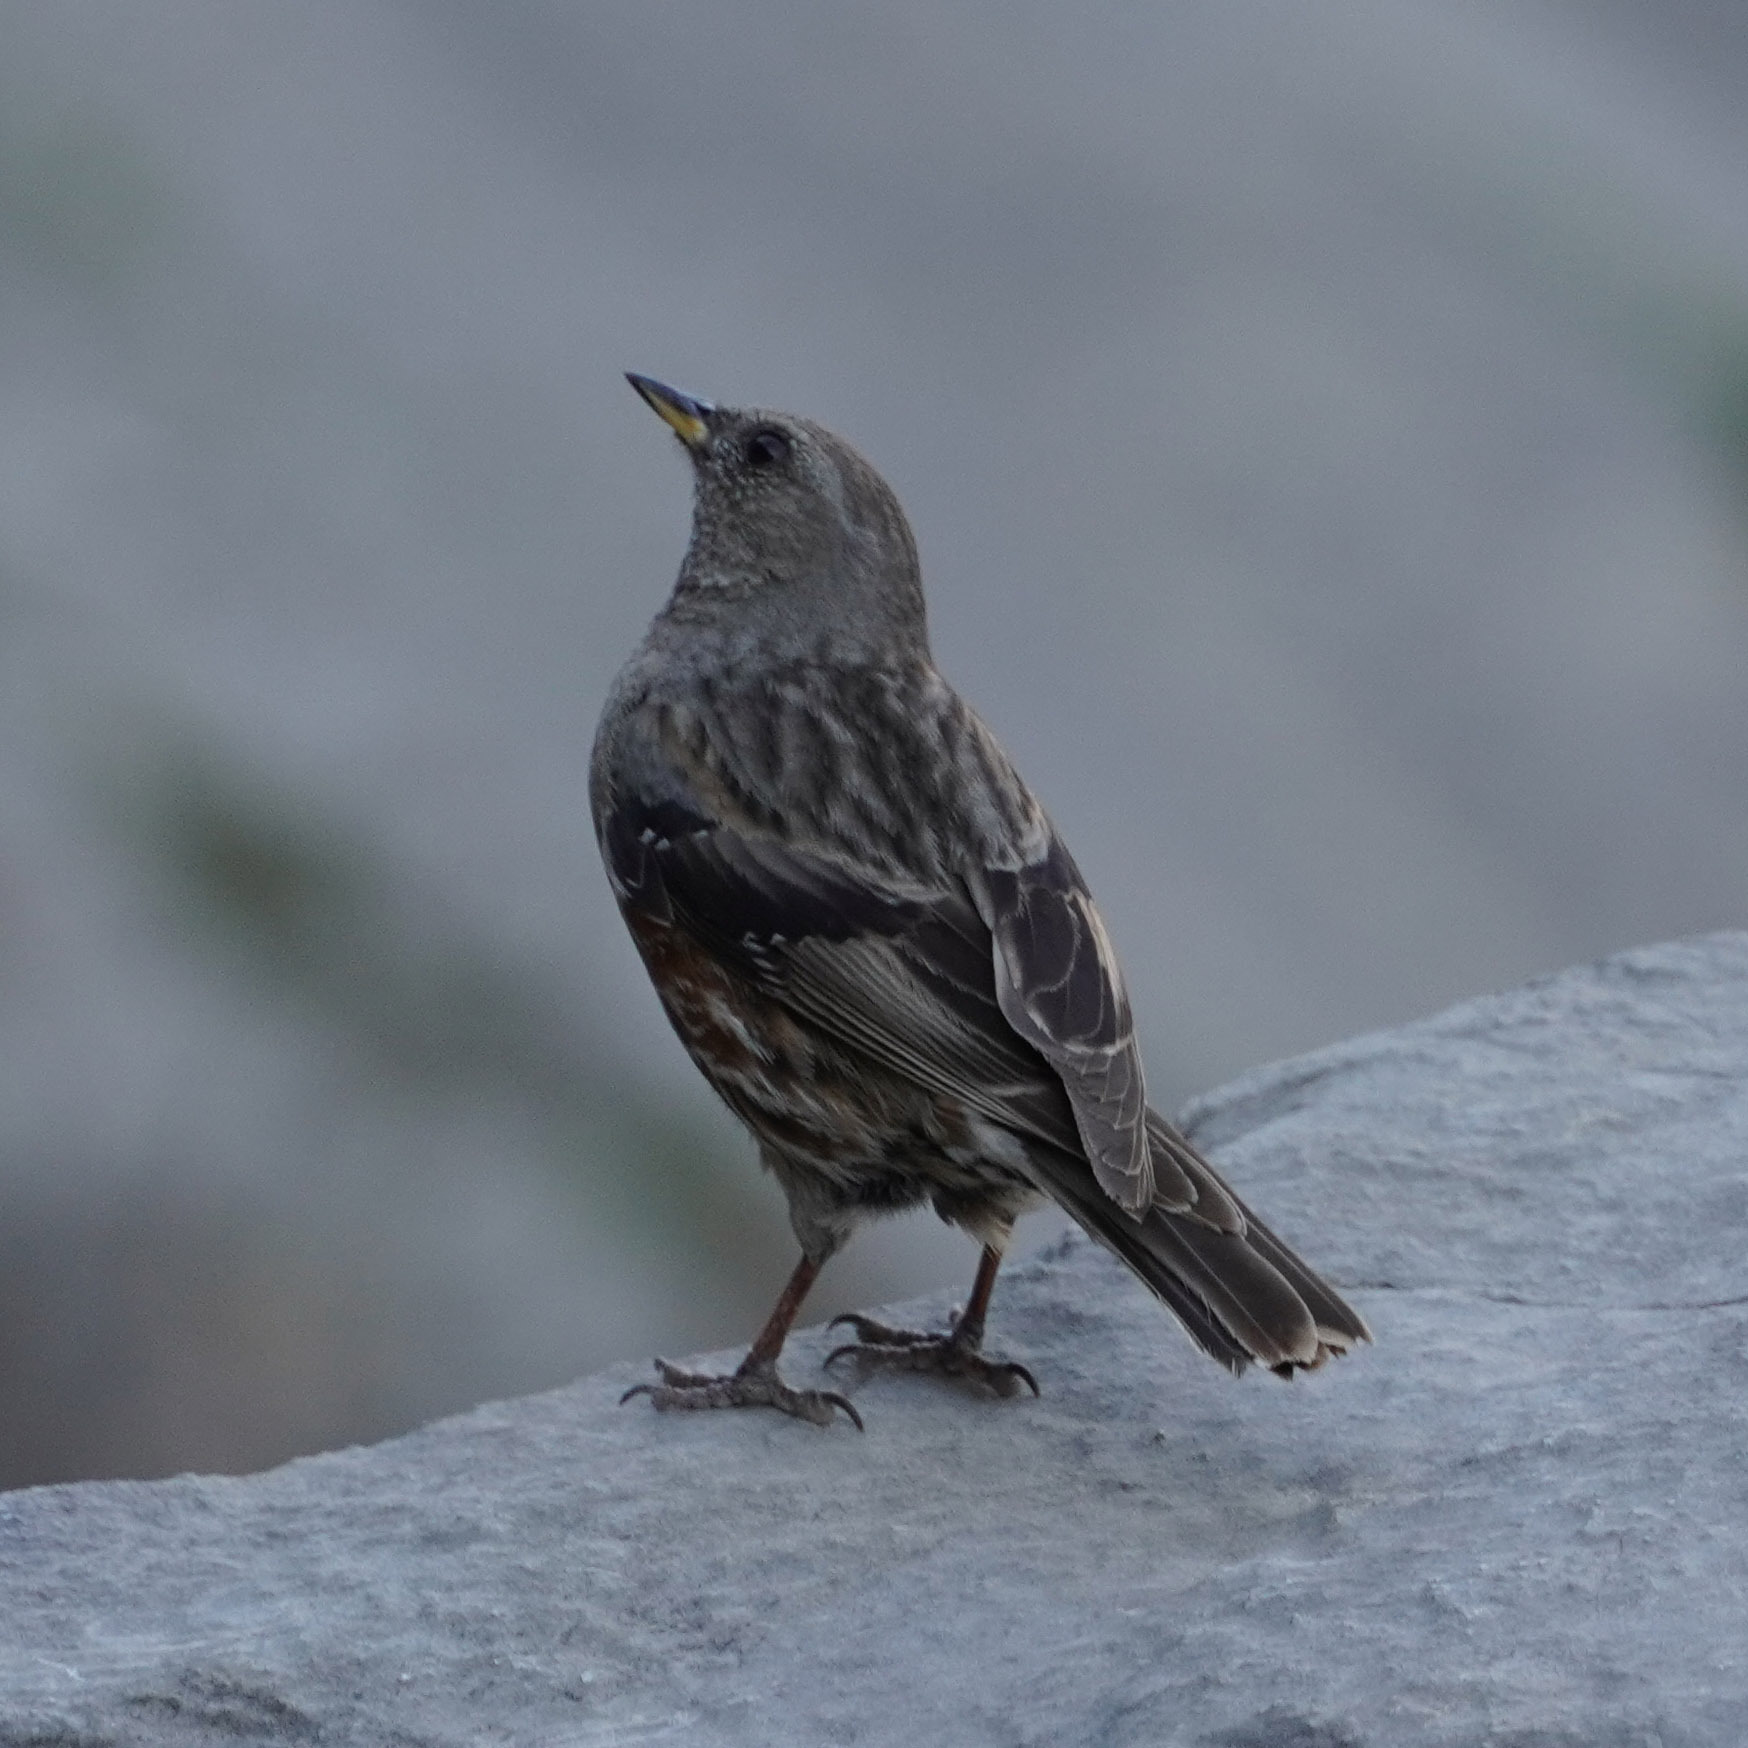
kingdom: Animalia
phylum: Chordata
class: Aves
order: Passeriformes
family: Prunellidae
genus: Prunella
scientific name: Prunella collaris
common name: Alpine accentor
